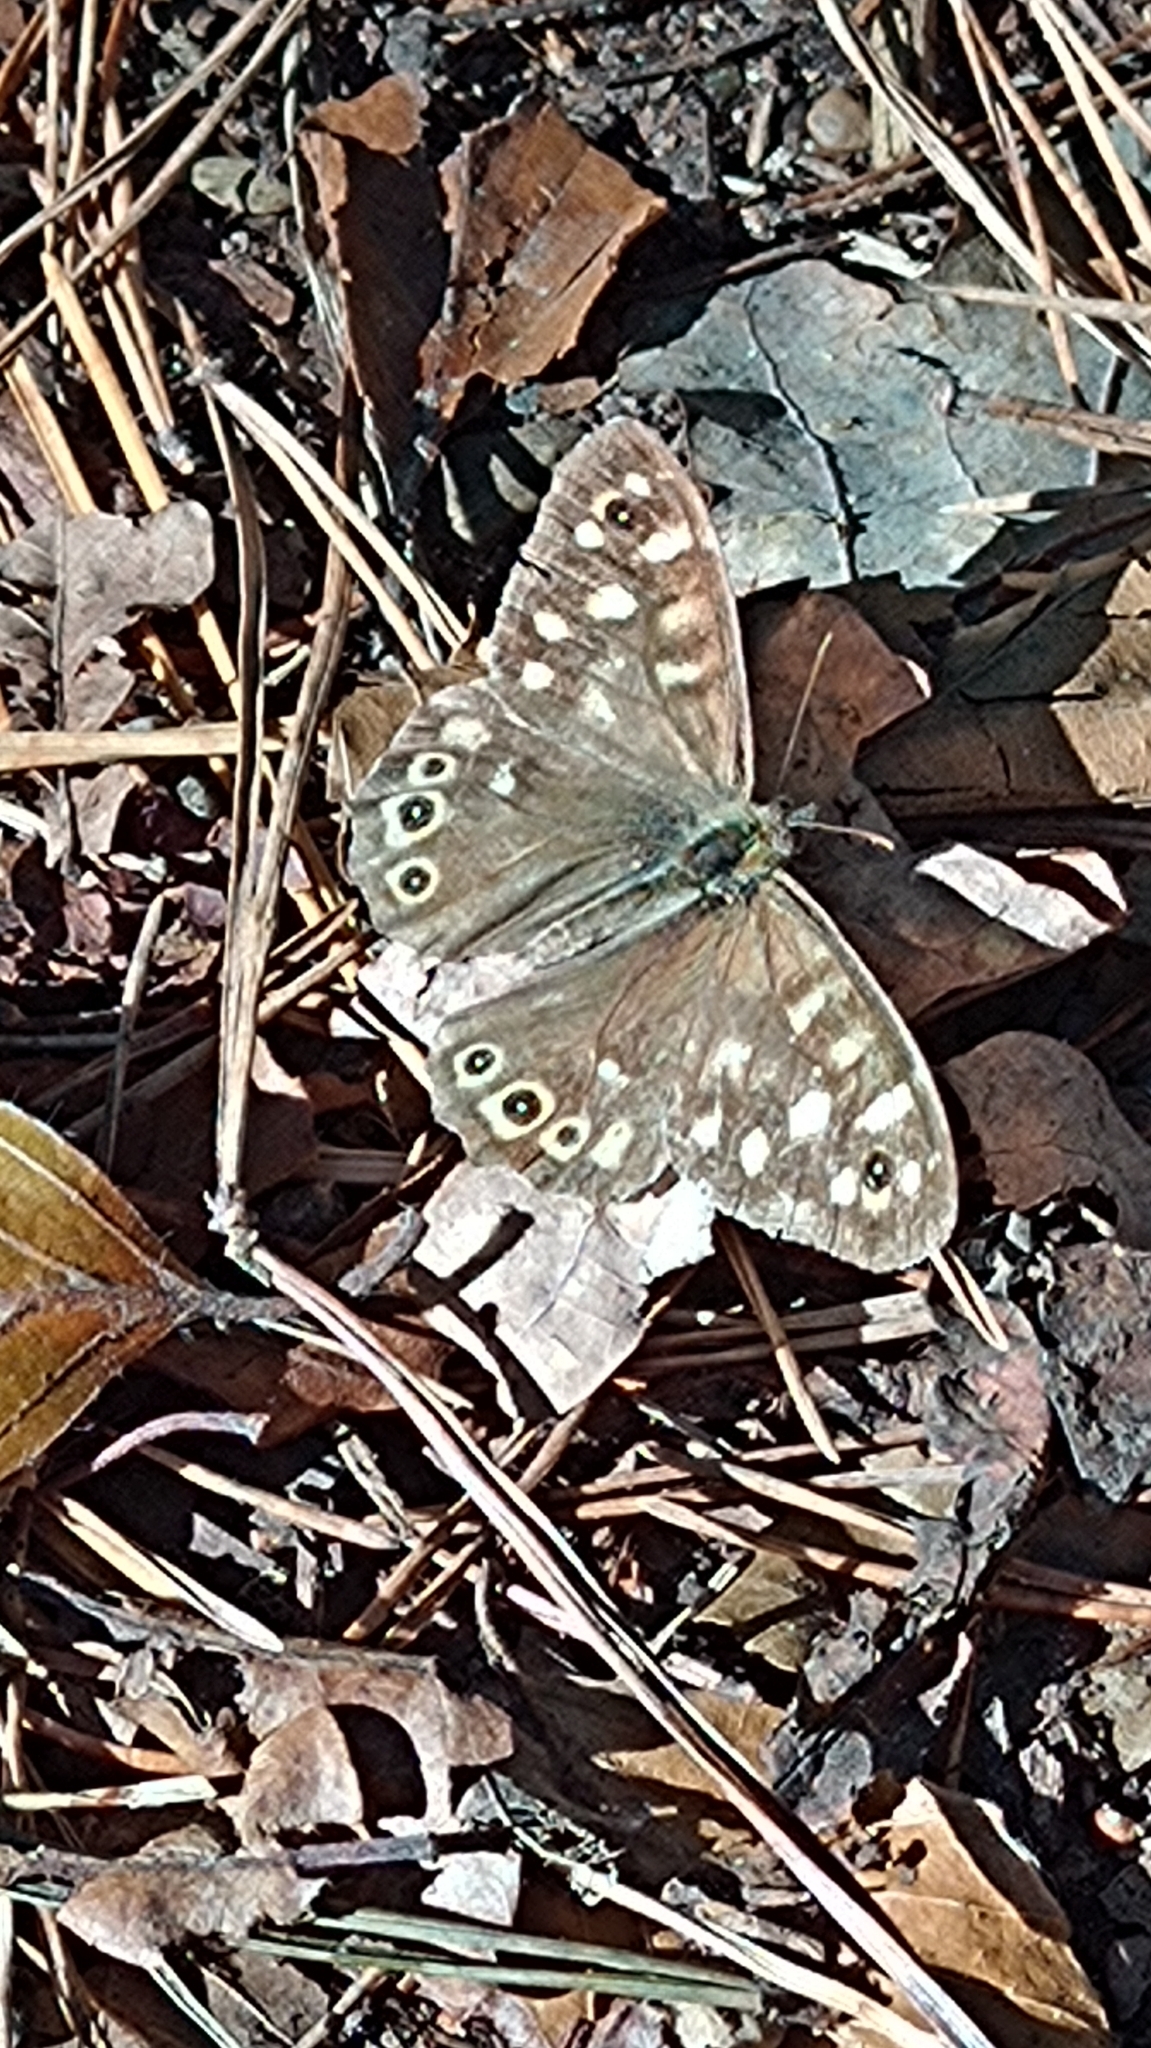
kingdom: Animalia
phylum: Arthropoda
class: Insecta
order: Lepidoptera
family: Nymphalidae
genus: Pararge
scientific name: Pararge aegeria
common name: Speckled wood
